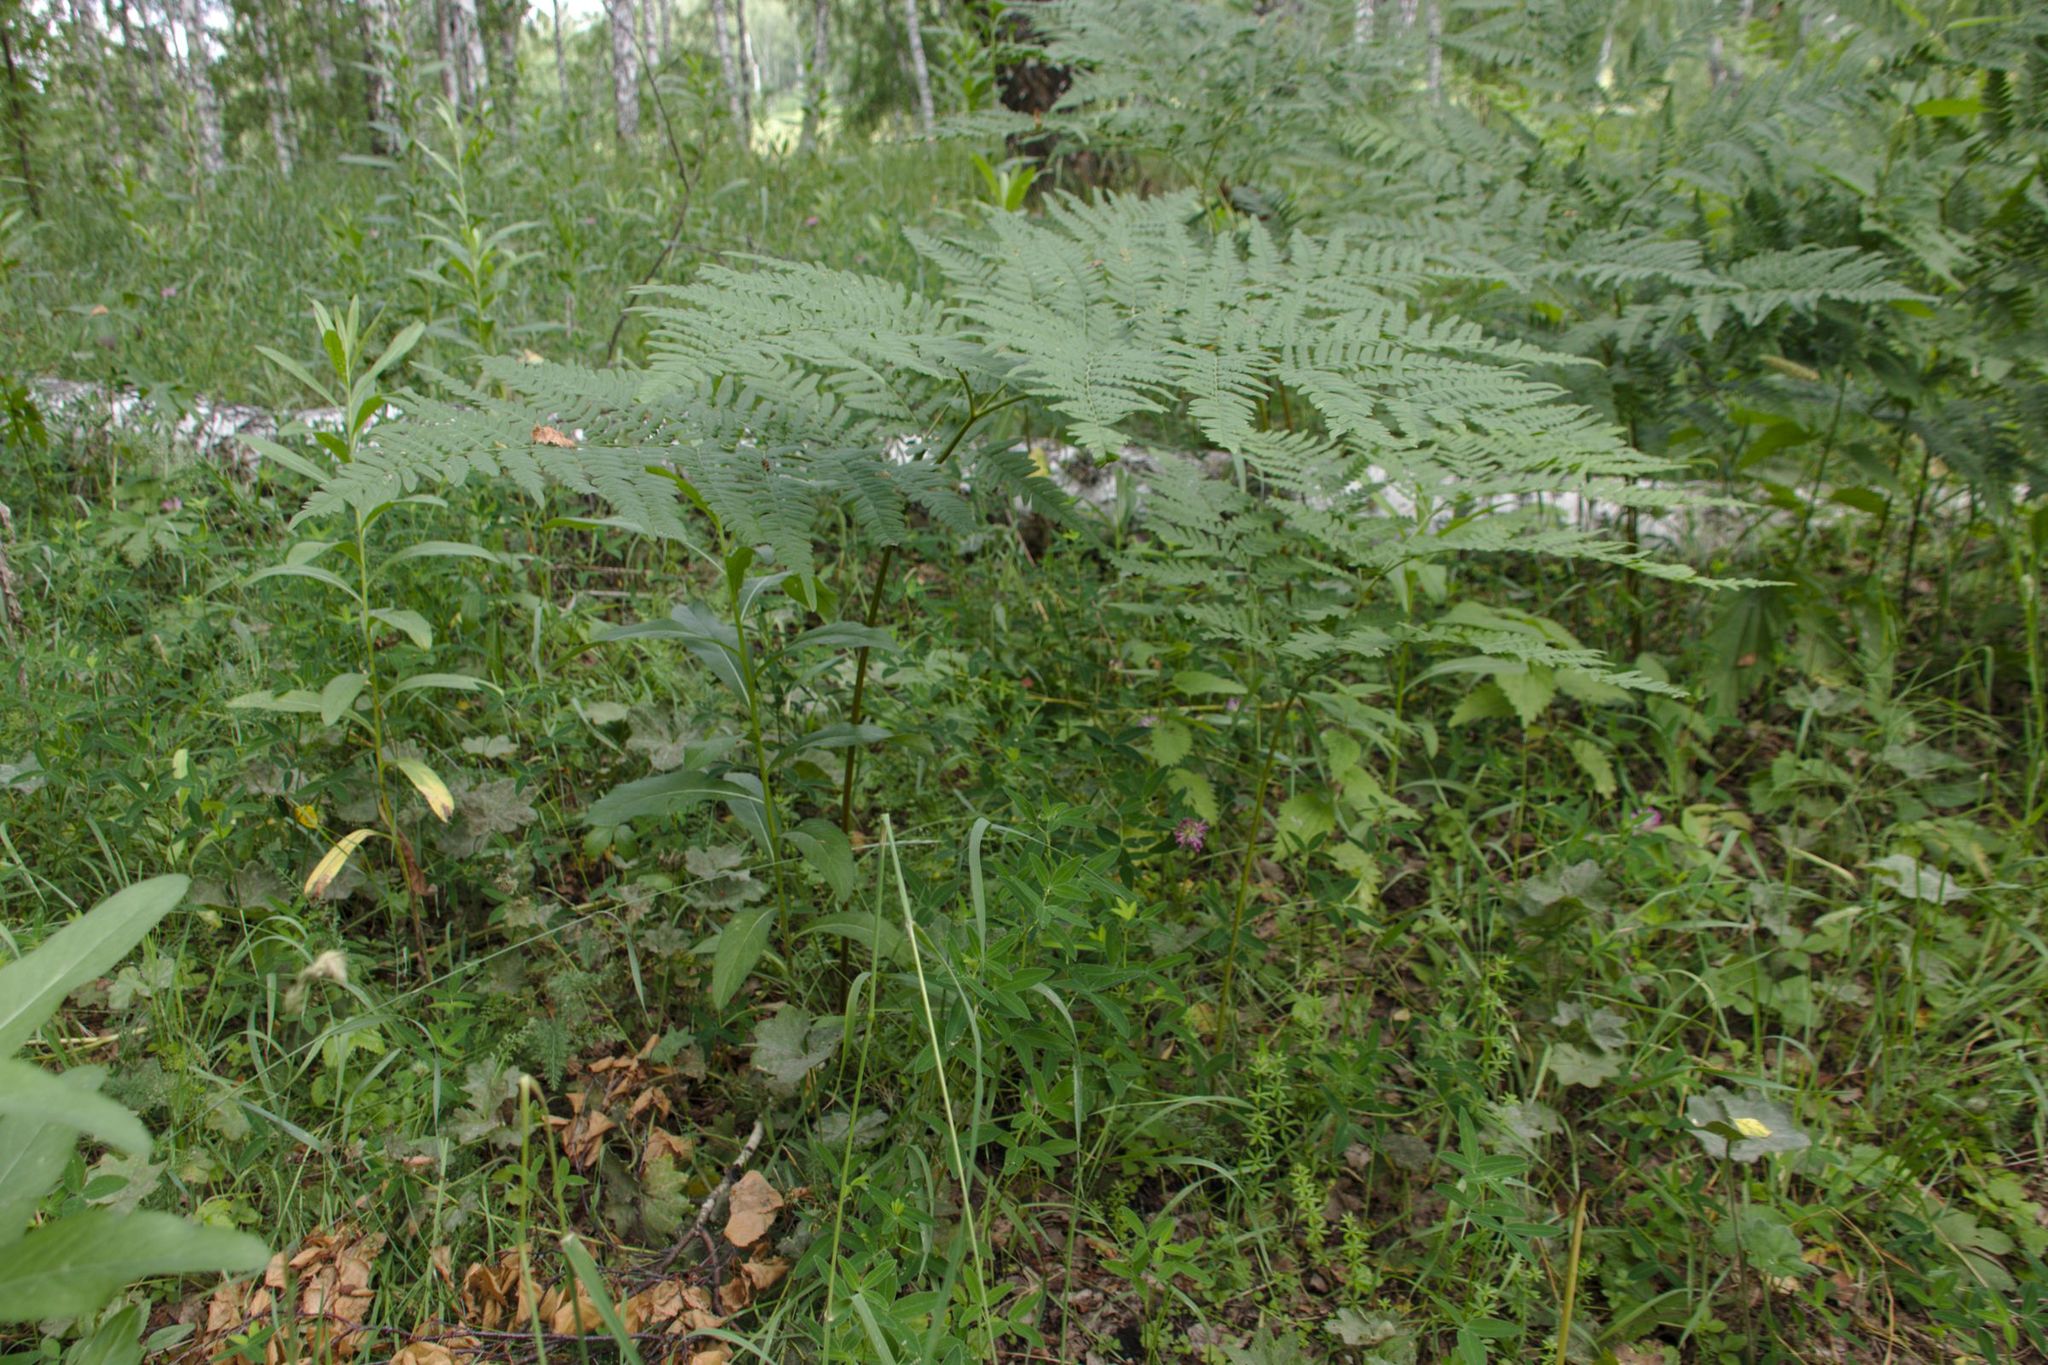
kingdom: Plantae
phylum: Tracheophyta
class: Polypodiopsida
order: Polypodiales
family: Dennstaedtiaceae
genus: Pteridium
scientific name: Pteridium aquilinum
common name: Bracken
